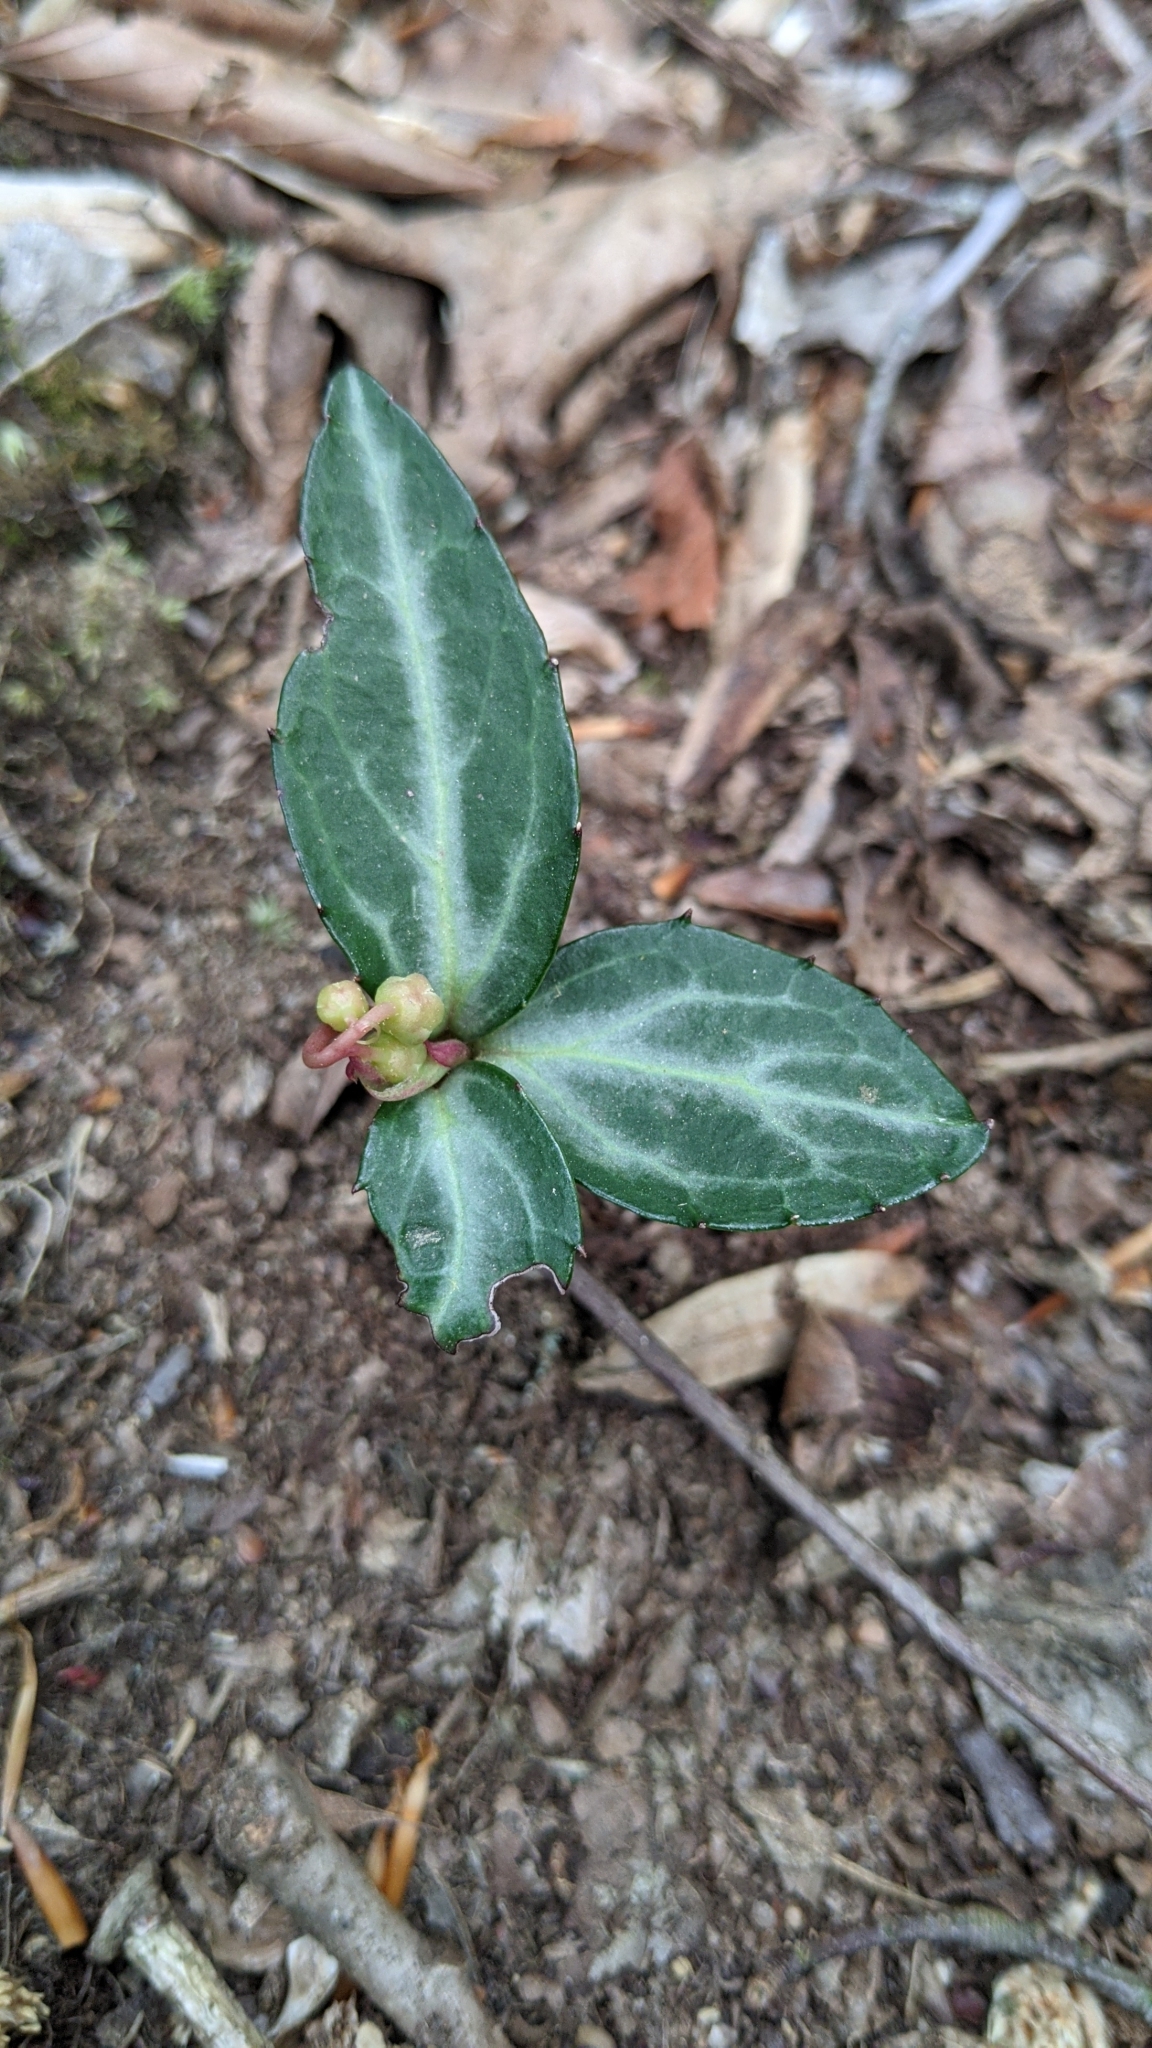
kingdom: Plantae
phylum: Tracheophyta
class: Magnoliopsida
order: Ericales
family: Ericaceae
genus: Chimaphila
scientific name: Chimaphila maculata
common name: Spotted pipsissewa
